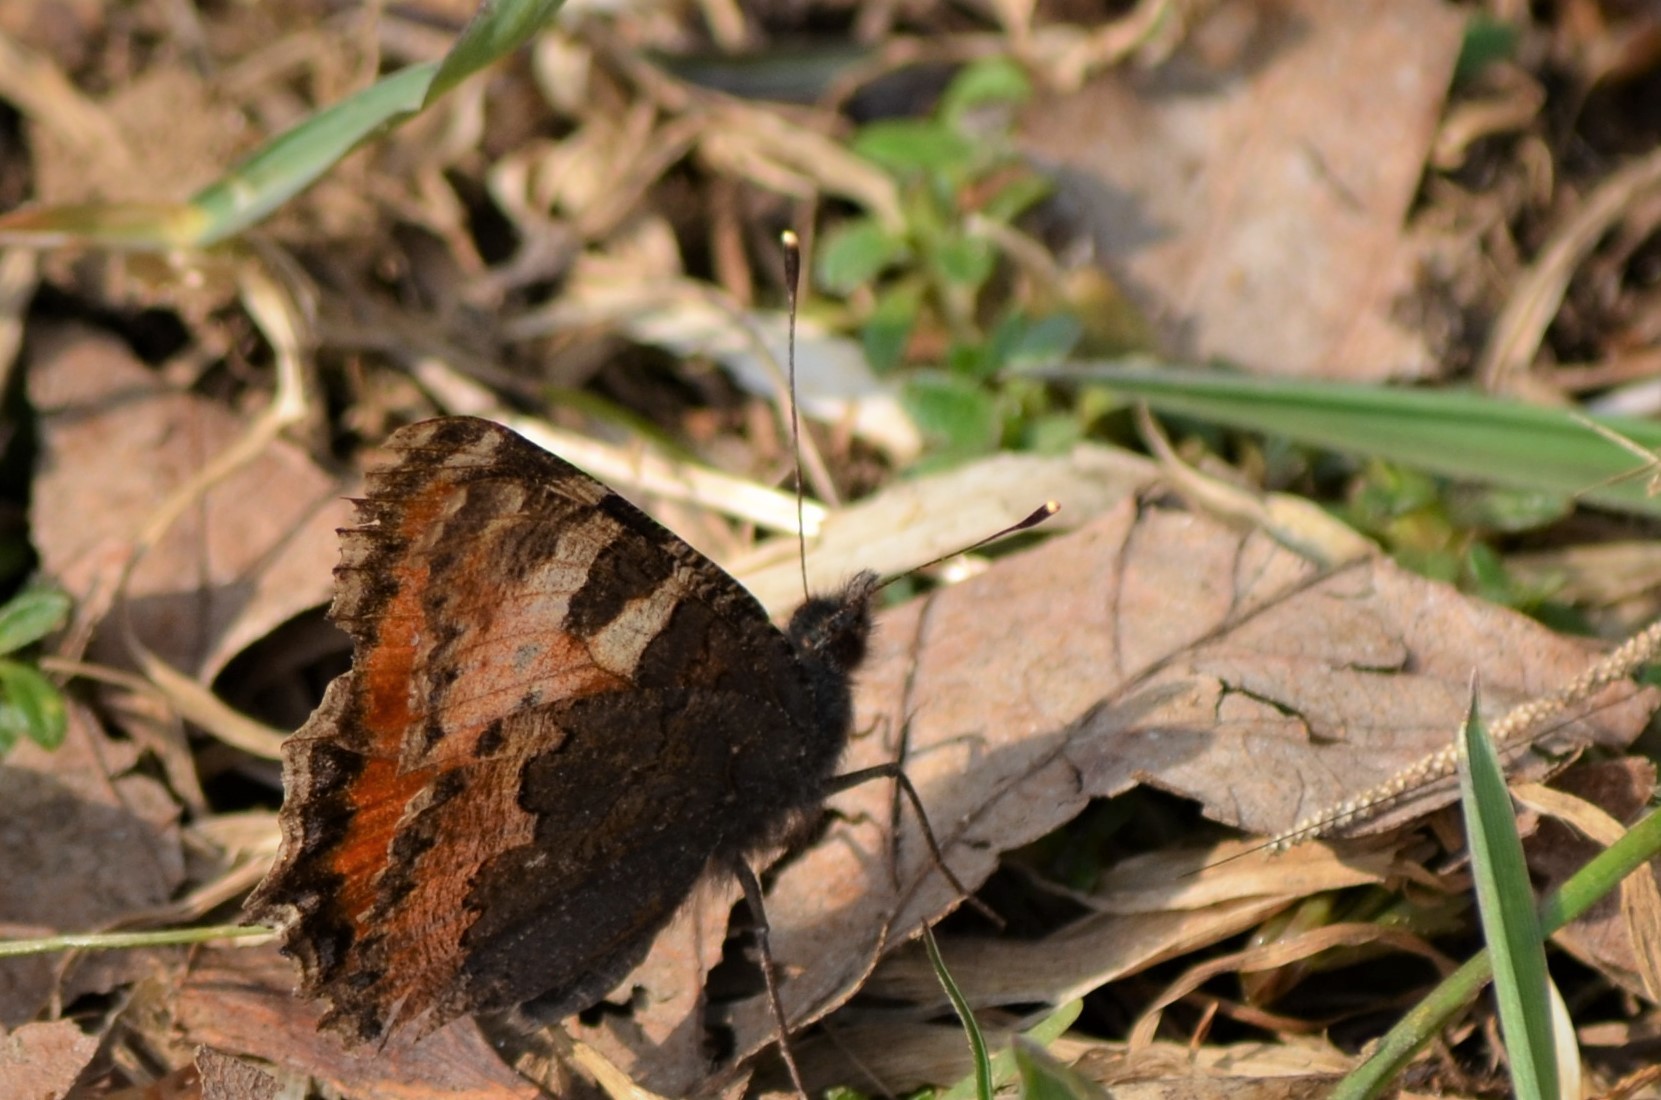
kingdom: Animalia
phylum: Arthropoda
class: Insecta
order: Lepidoptera
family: Nymphalidae
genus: Aglais
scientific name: Aglais urticae
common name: Small tortoiseshell
